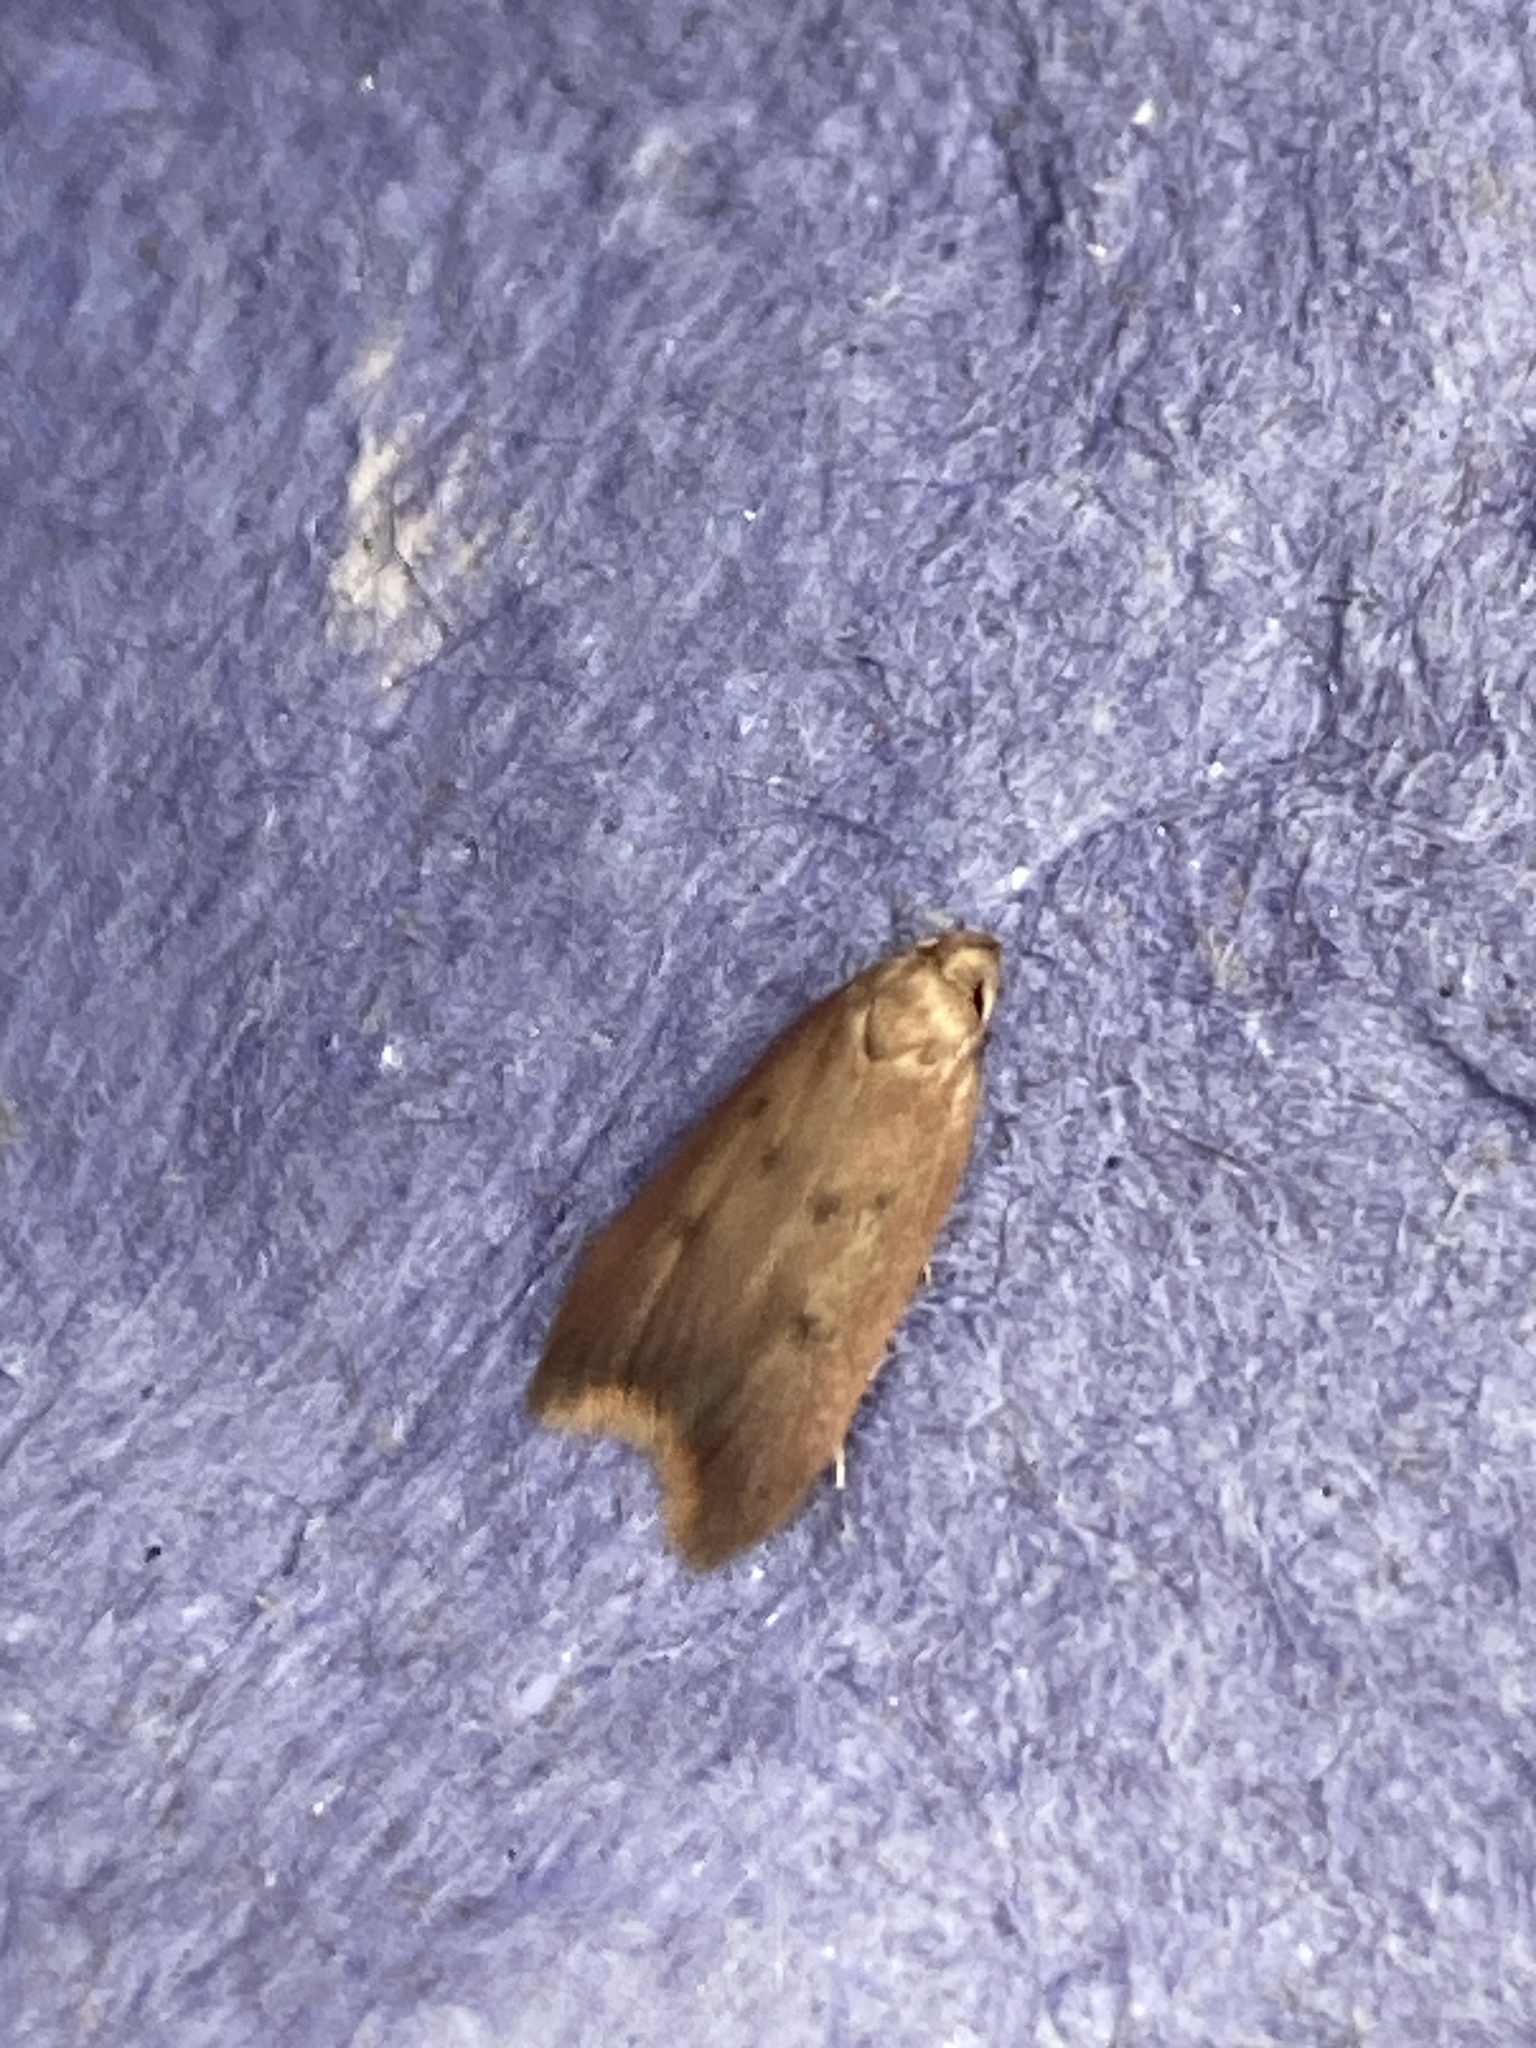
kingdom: Animalia
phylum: Arthropoda
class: Insecta
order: Lepidoptera
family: Oecophoridae
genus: Tachystola
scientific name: Tachystola acroxantha
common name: Ruddy streak
